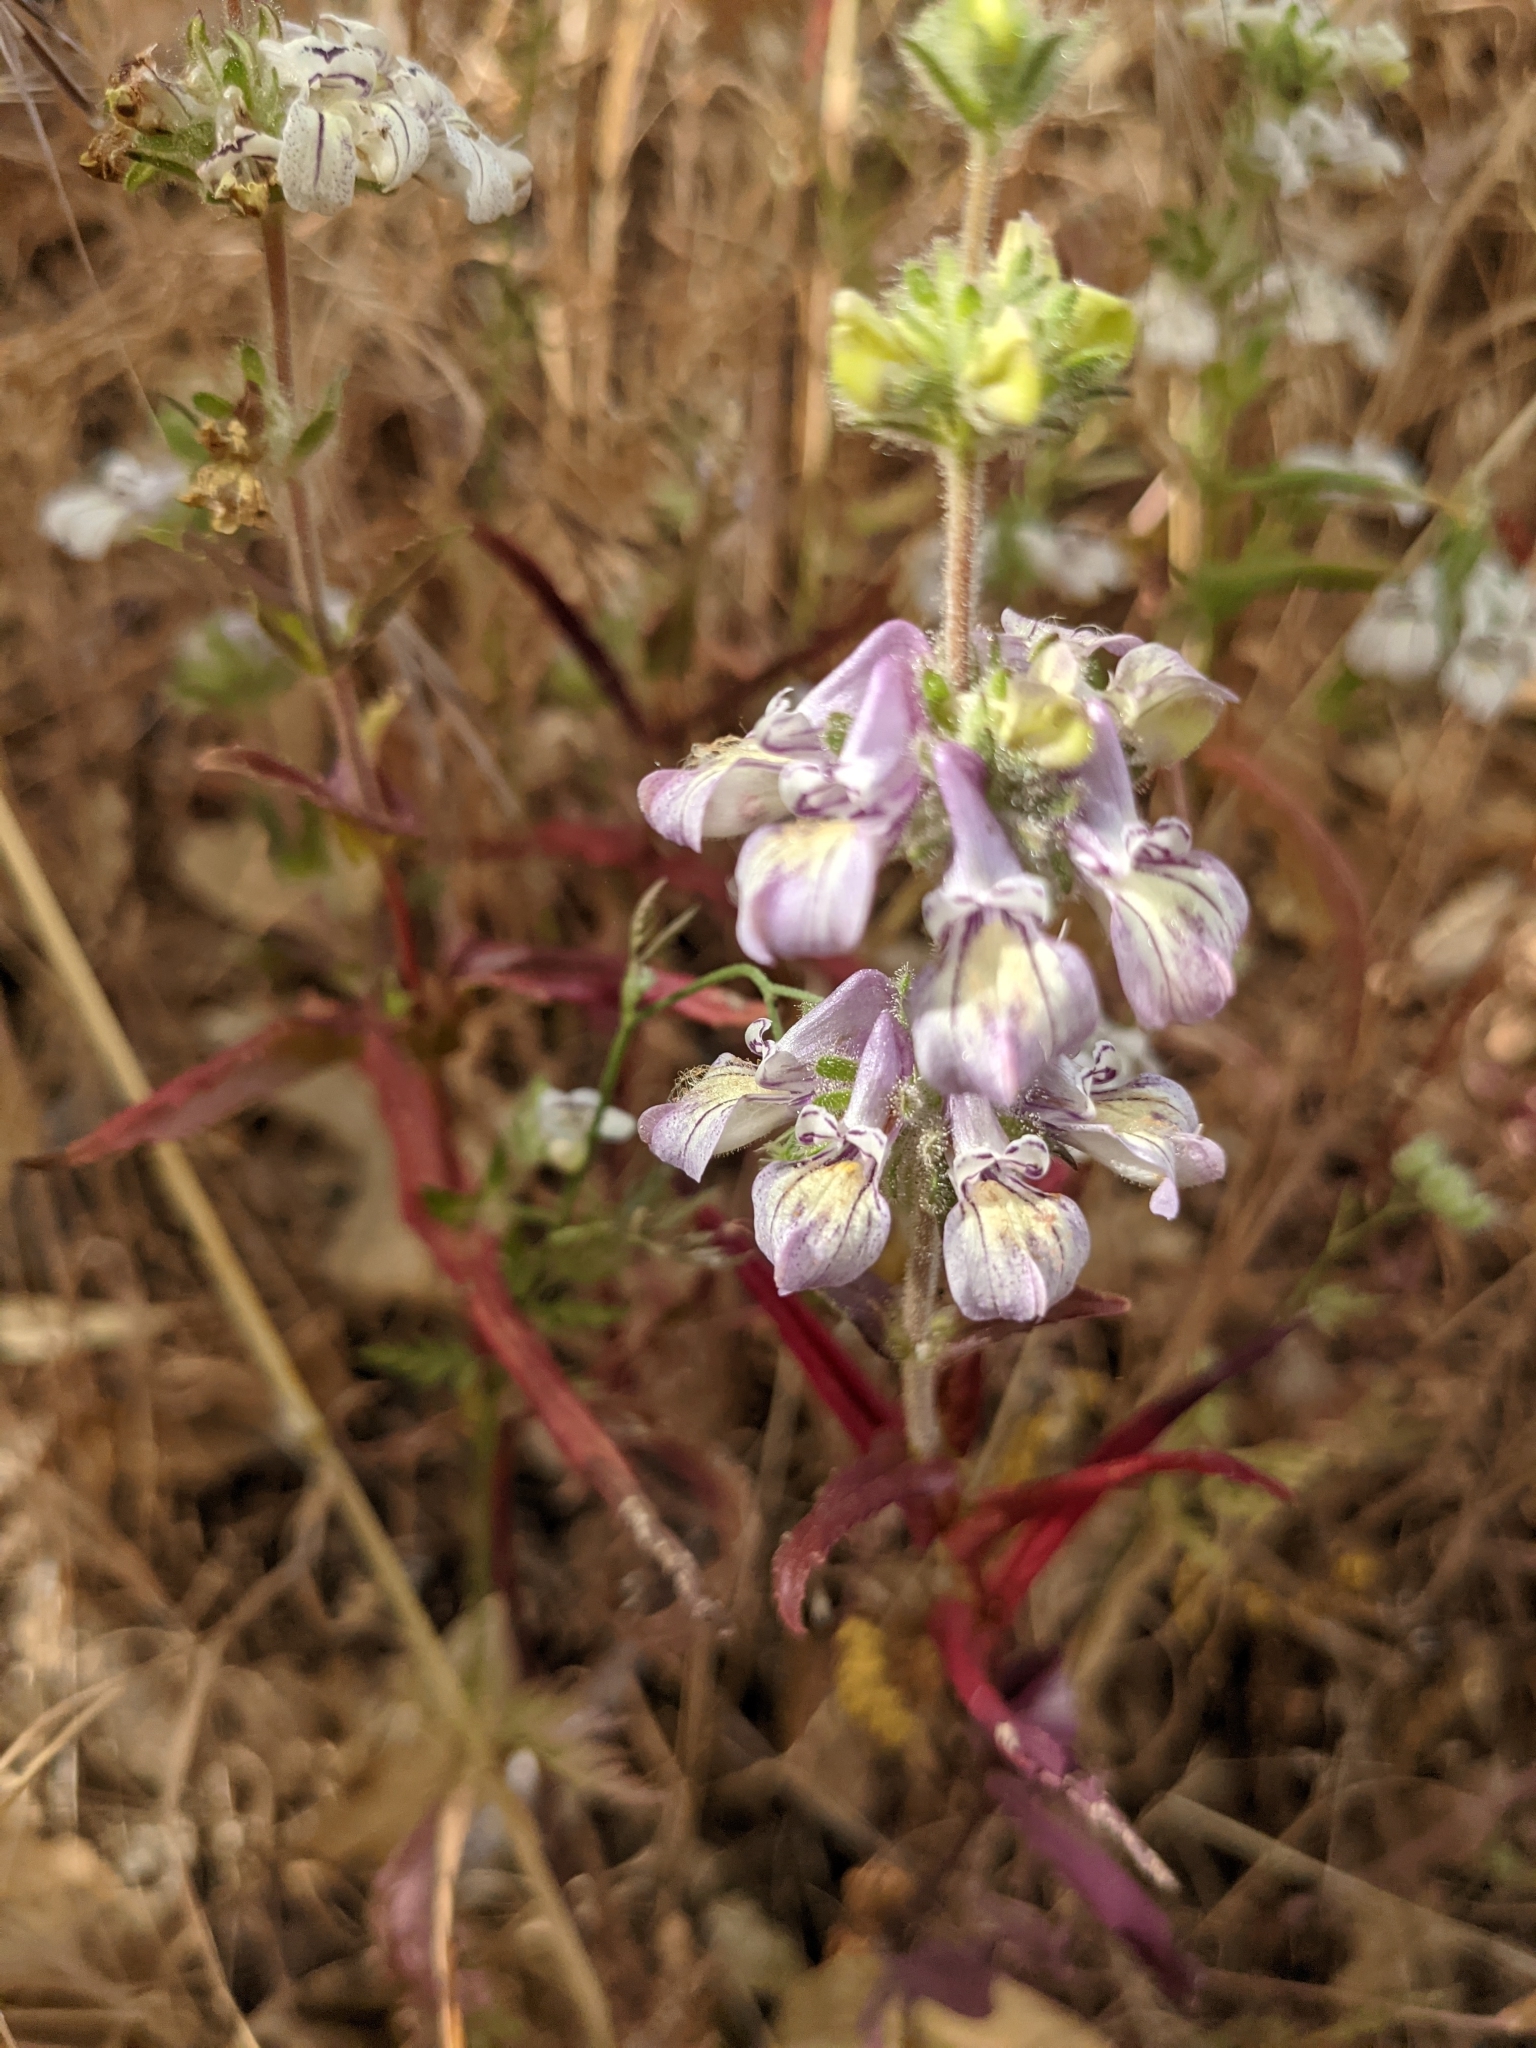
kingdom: Plantae
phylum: Tracheophyta
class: Magnoliopsida
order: Lamiales
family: Plantaginaceae
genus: Collinsia
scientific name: Collinsia tinctoria
